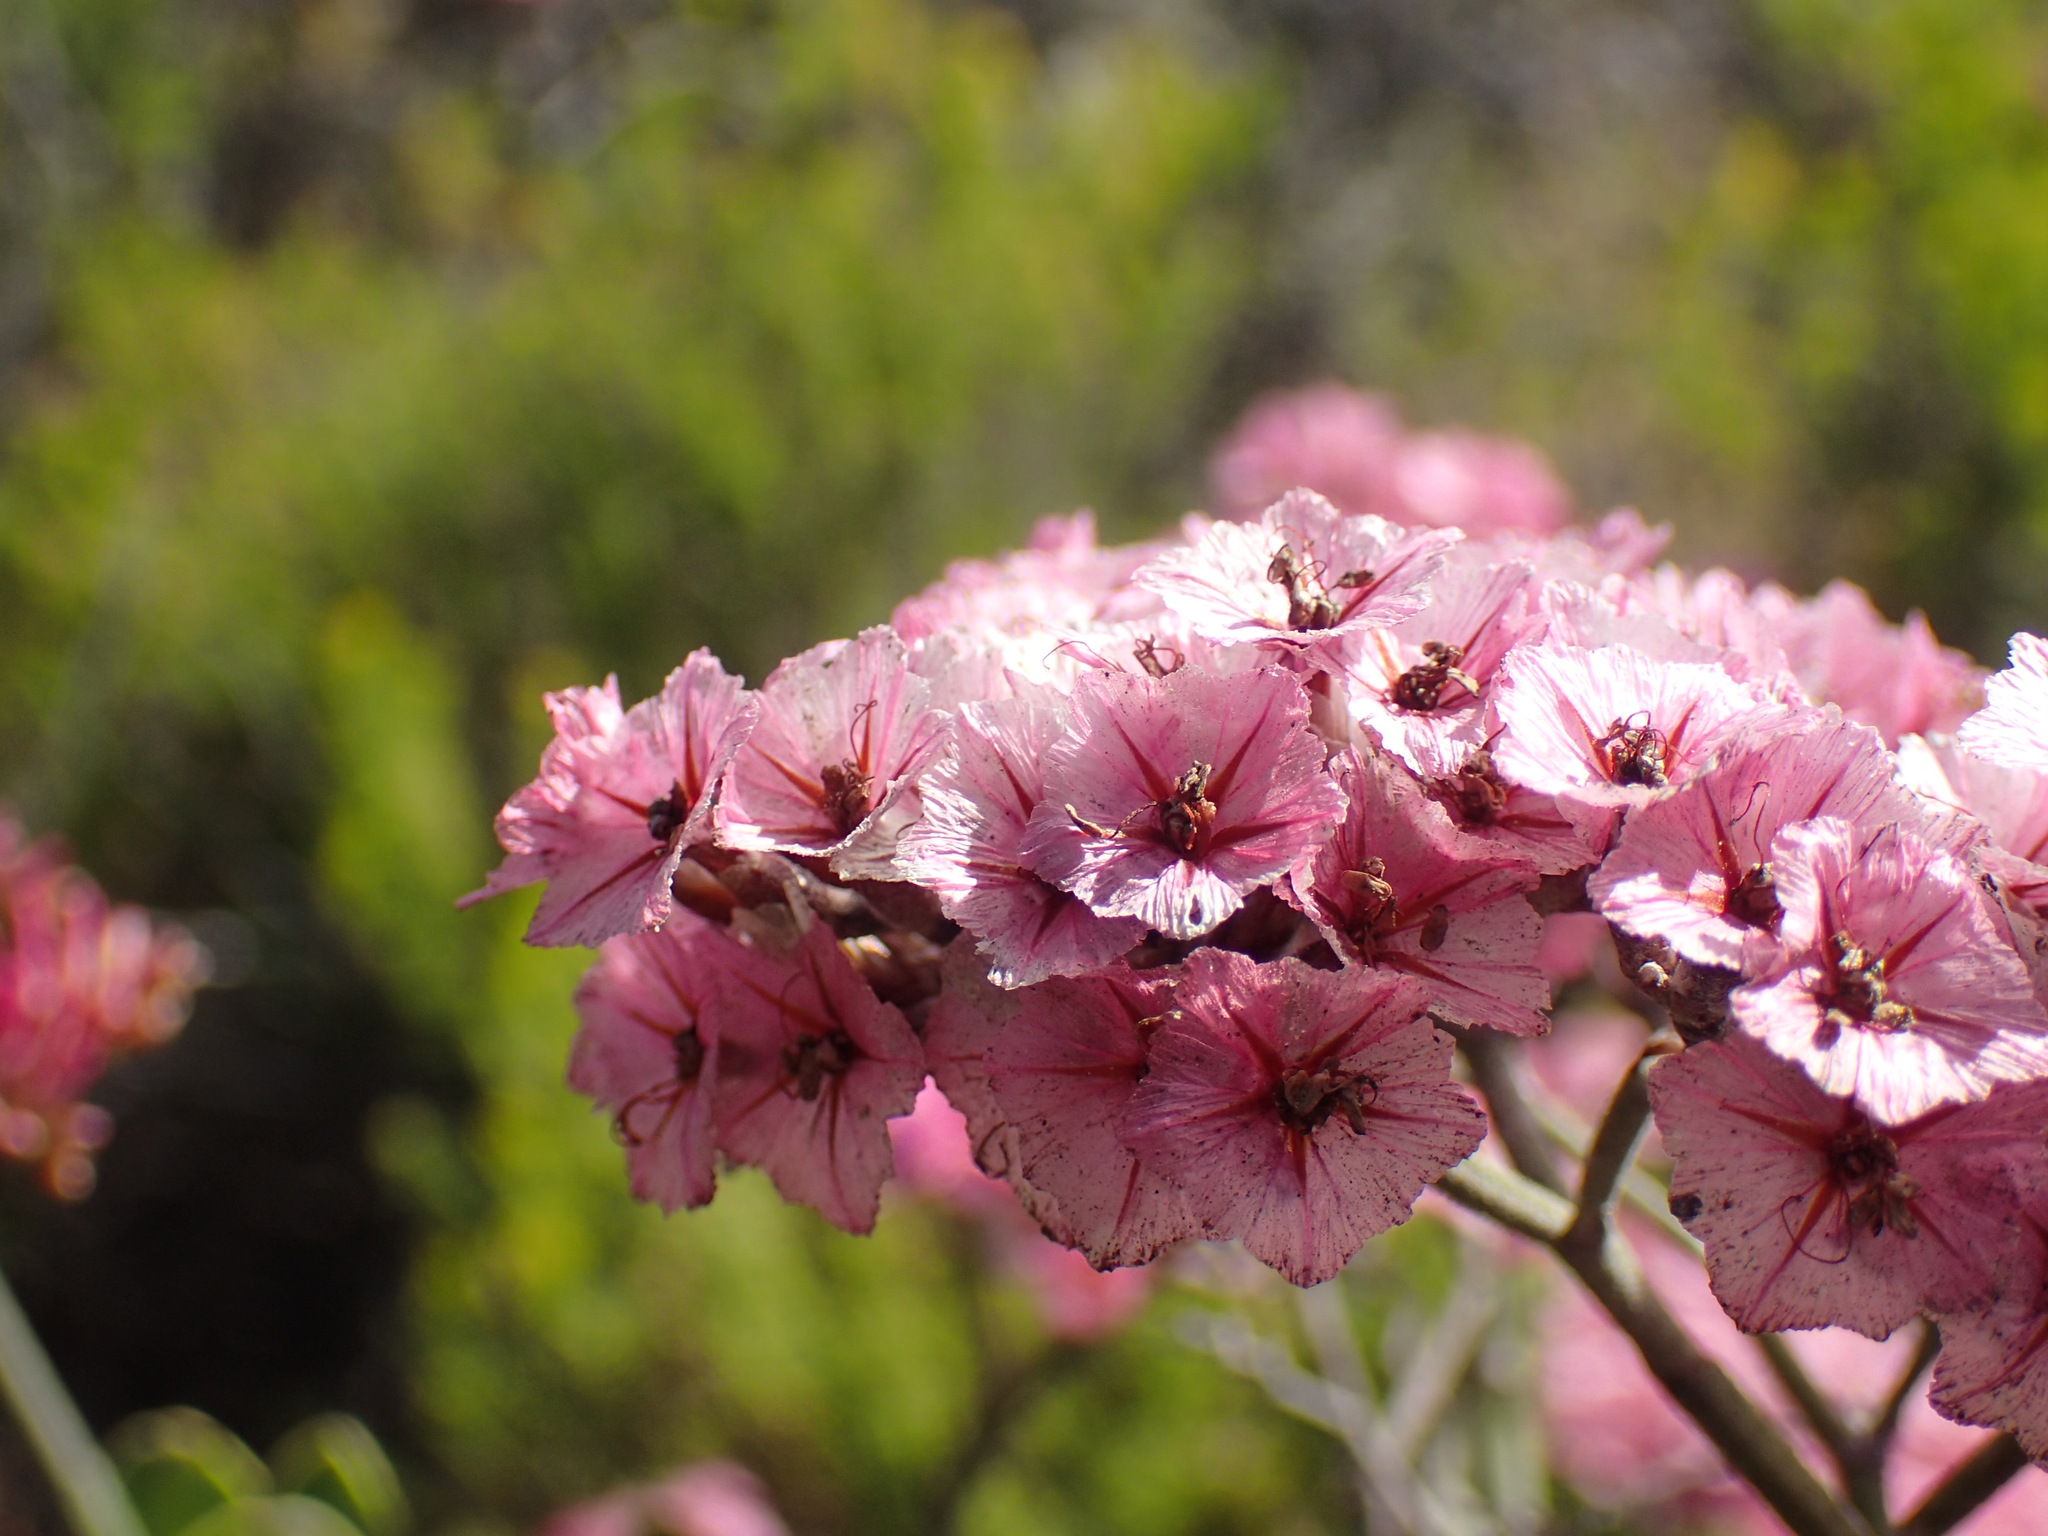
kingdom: Plantae
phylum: Tracheophyta
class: Magnoliopsida
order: Caryophyllales
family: Plumbaginaceae
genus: Limonium
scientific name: Limonium peregrinum
